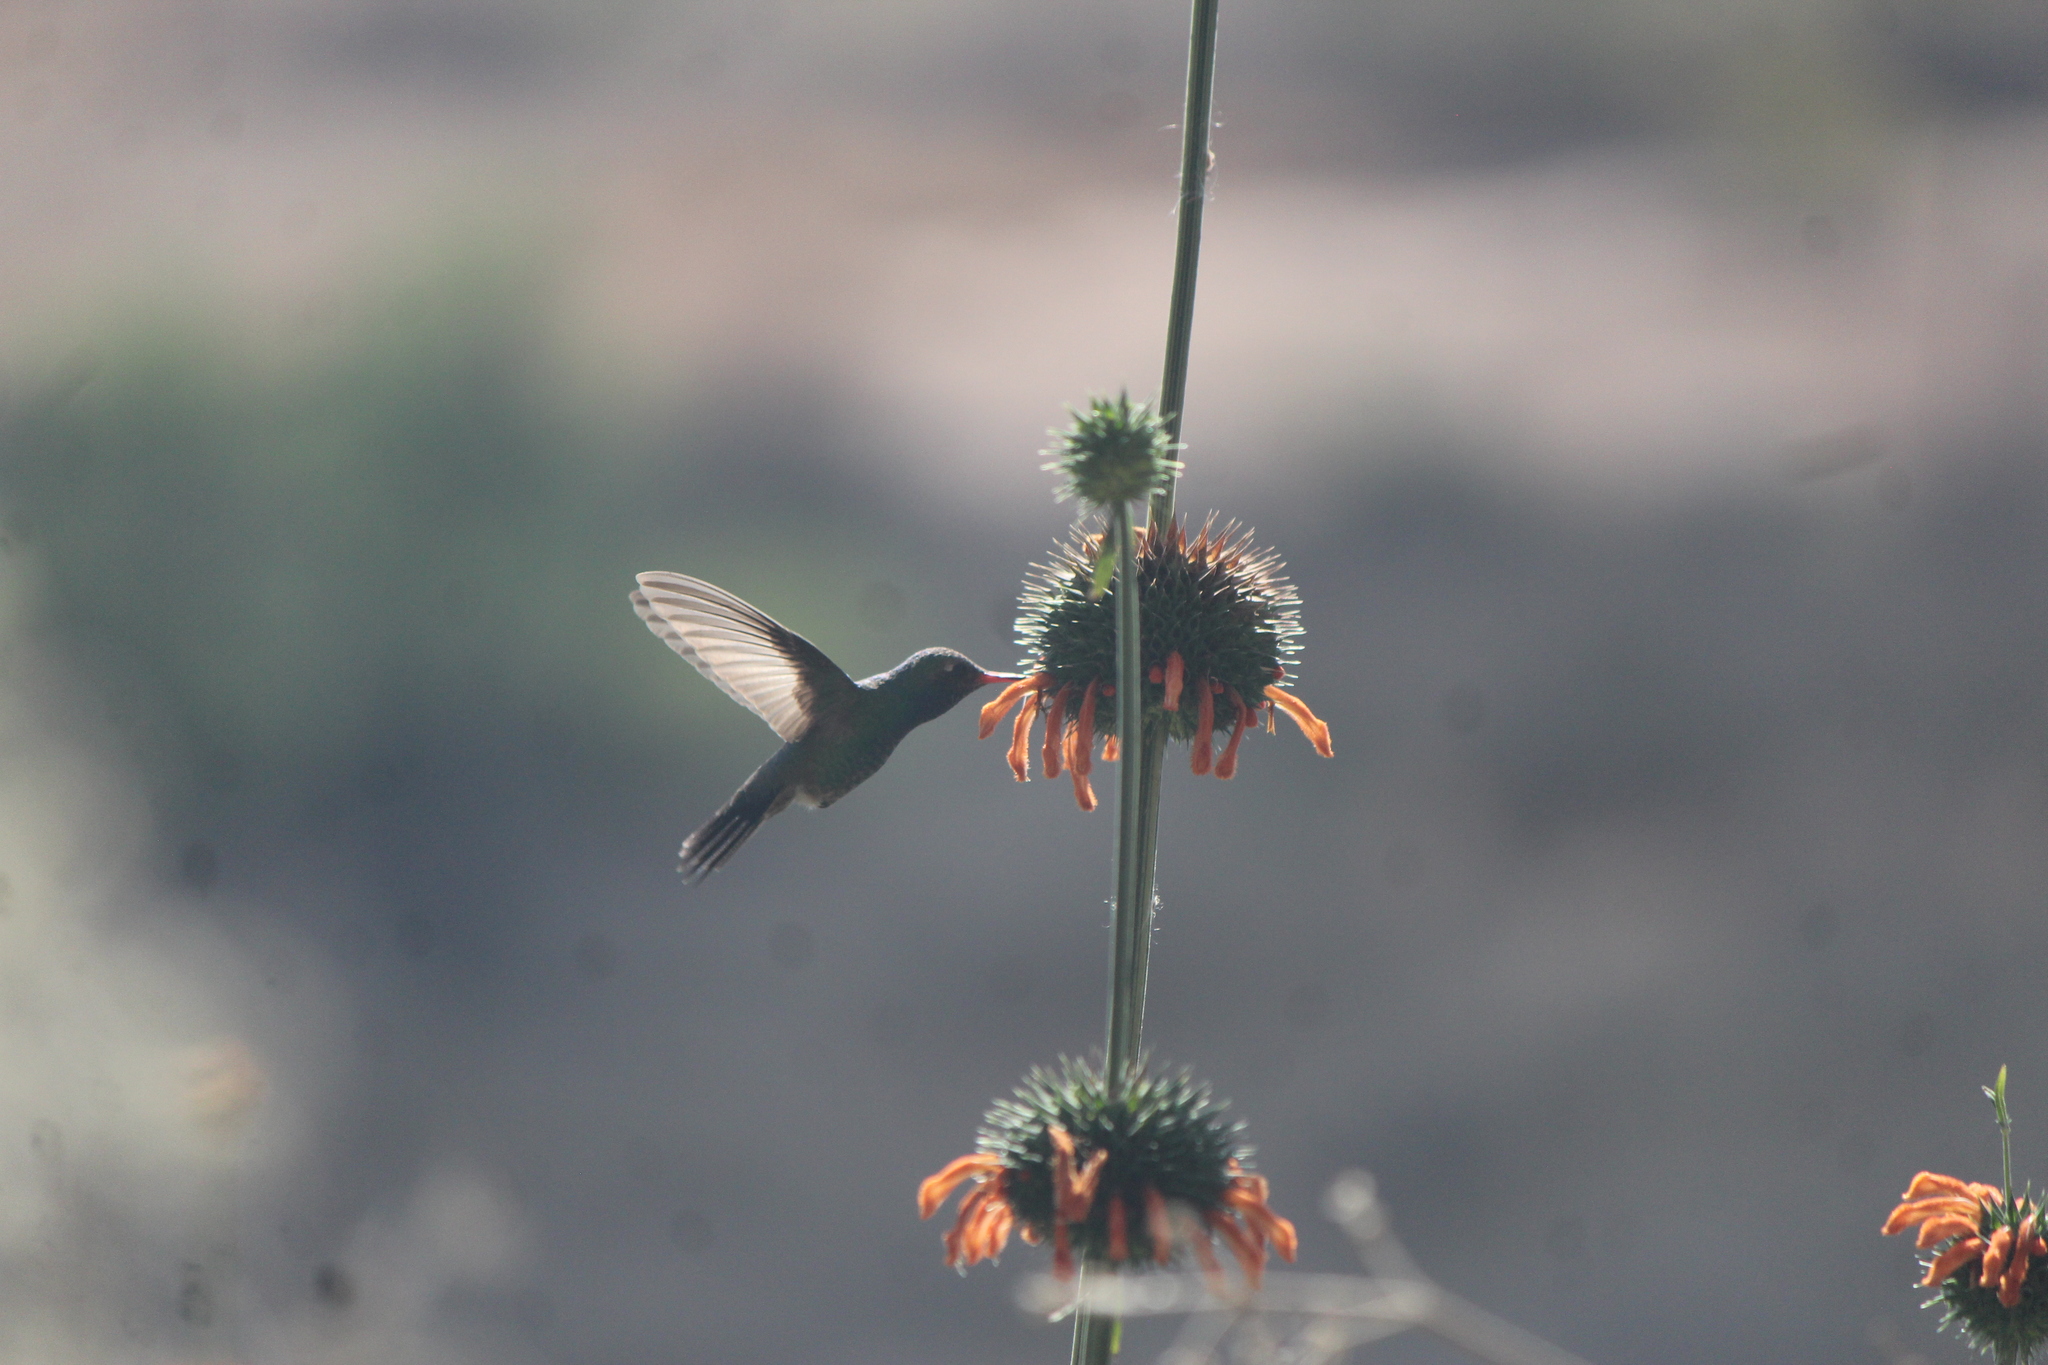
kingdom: Animalia
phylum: Chordata
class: Aves
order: Apodiformes
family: Trochilidae
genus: Cynanthus
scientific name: Cynanthus latirostris
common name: Broad-billed hummingbird
